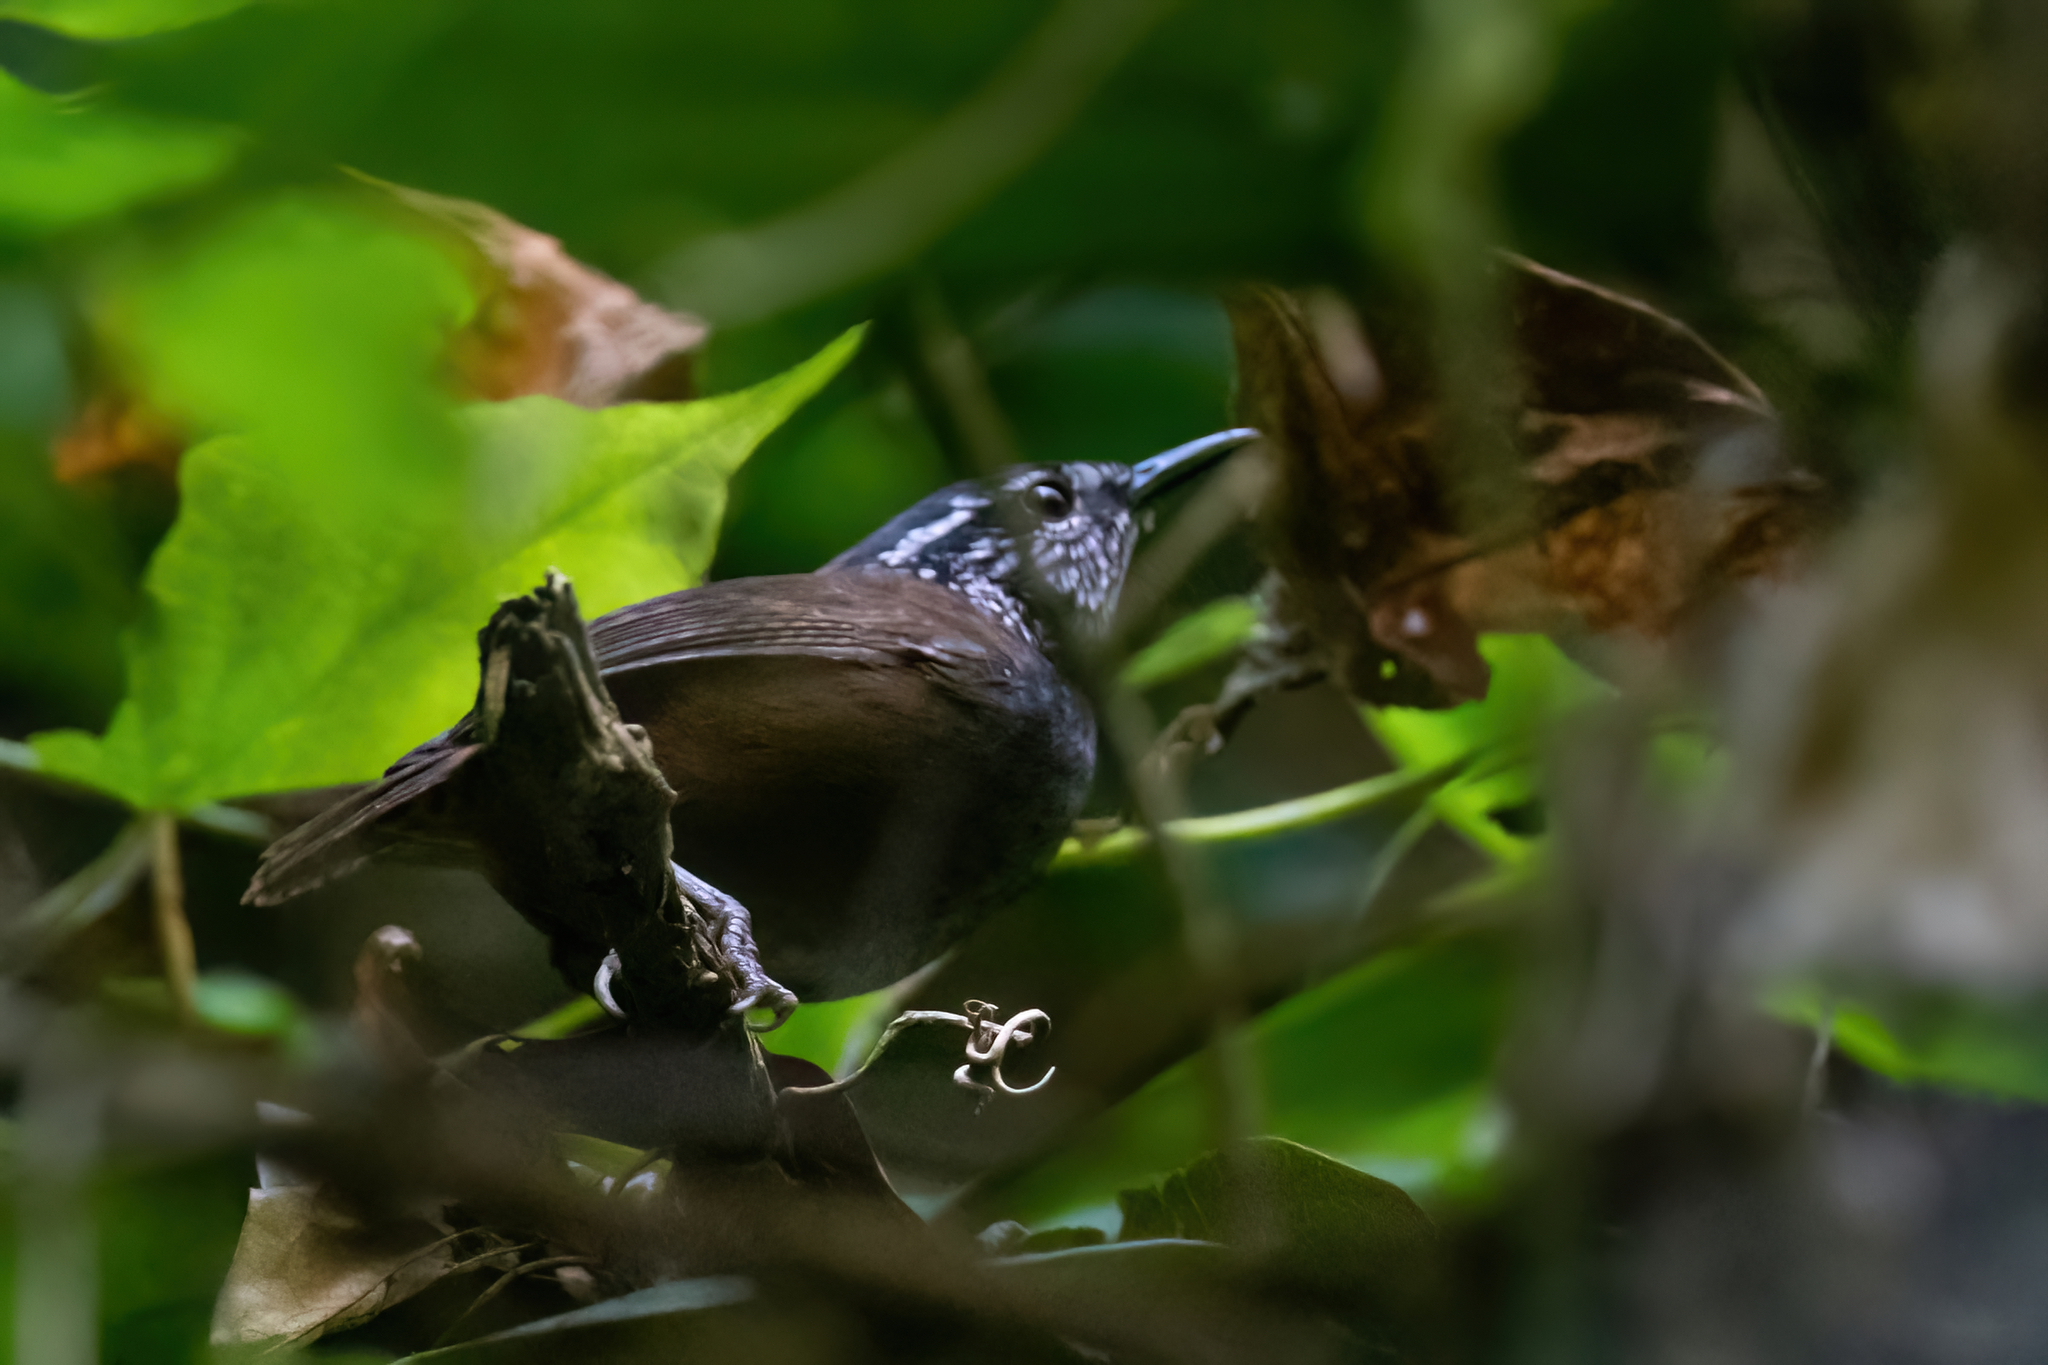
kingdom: Animalia
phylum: Chordata
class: Aves
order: Passeriformes
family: Troglodytidae
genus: Henicorhina
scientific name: Henicorhina leucophrys
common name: Gray-breasted wood-wren
